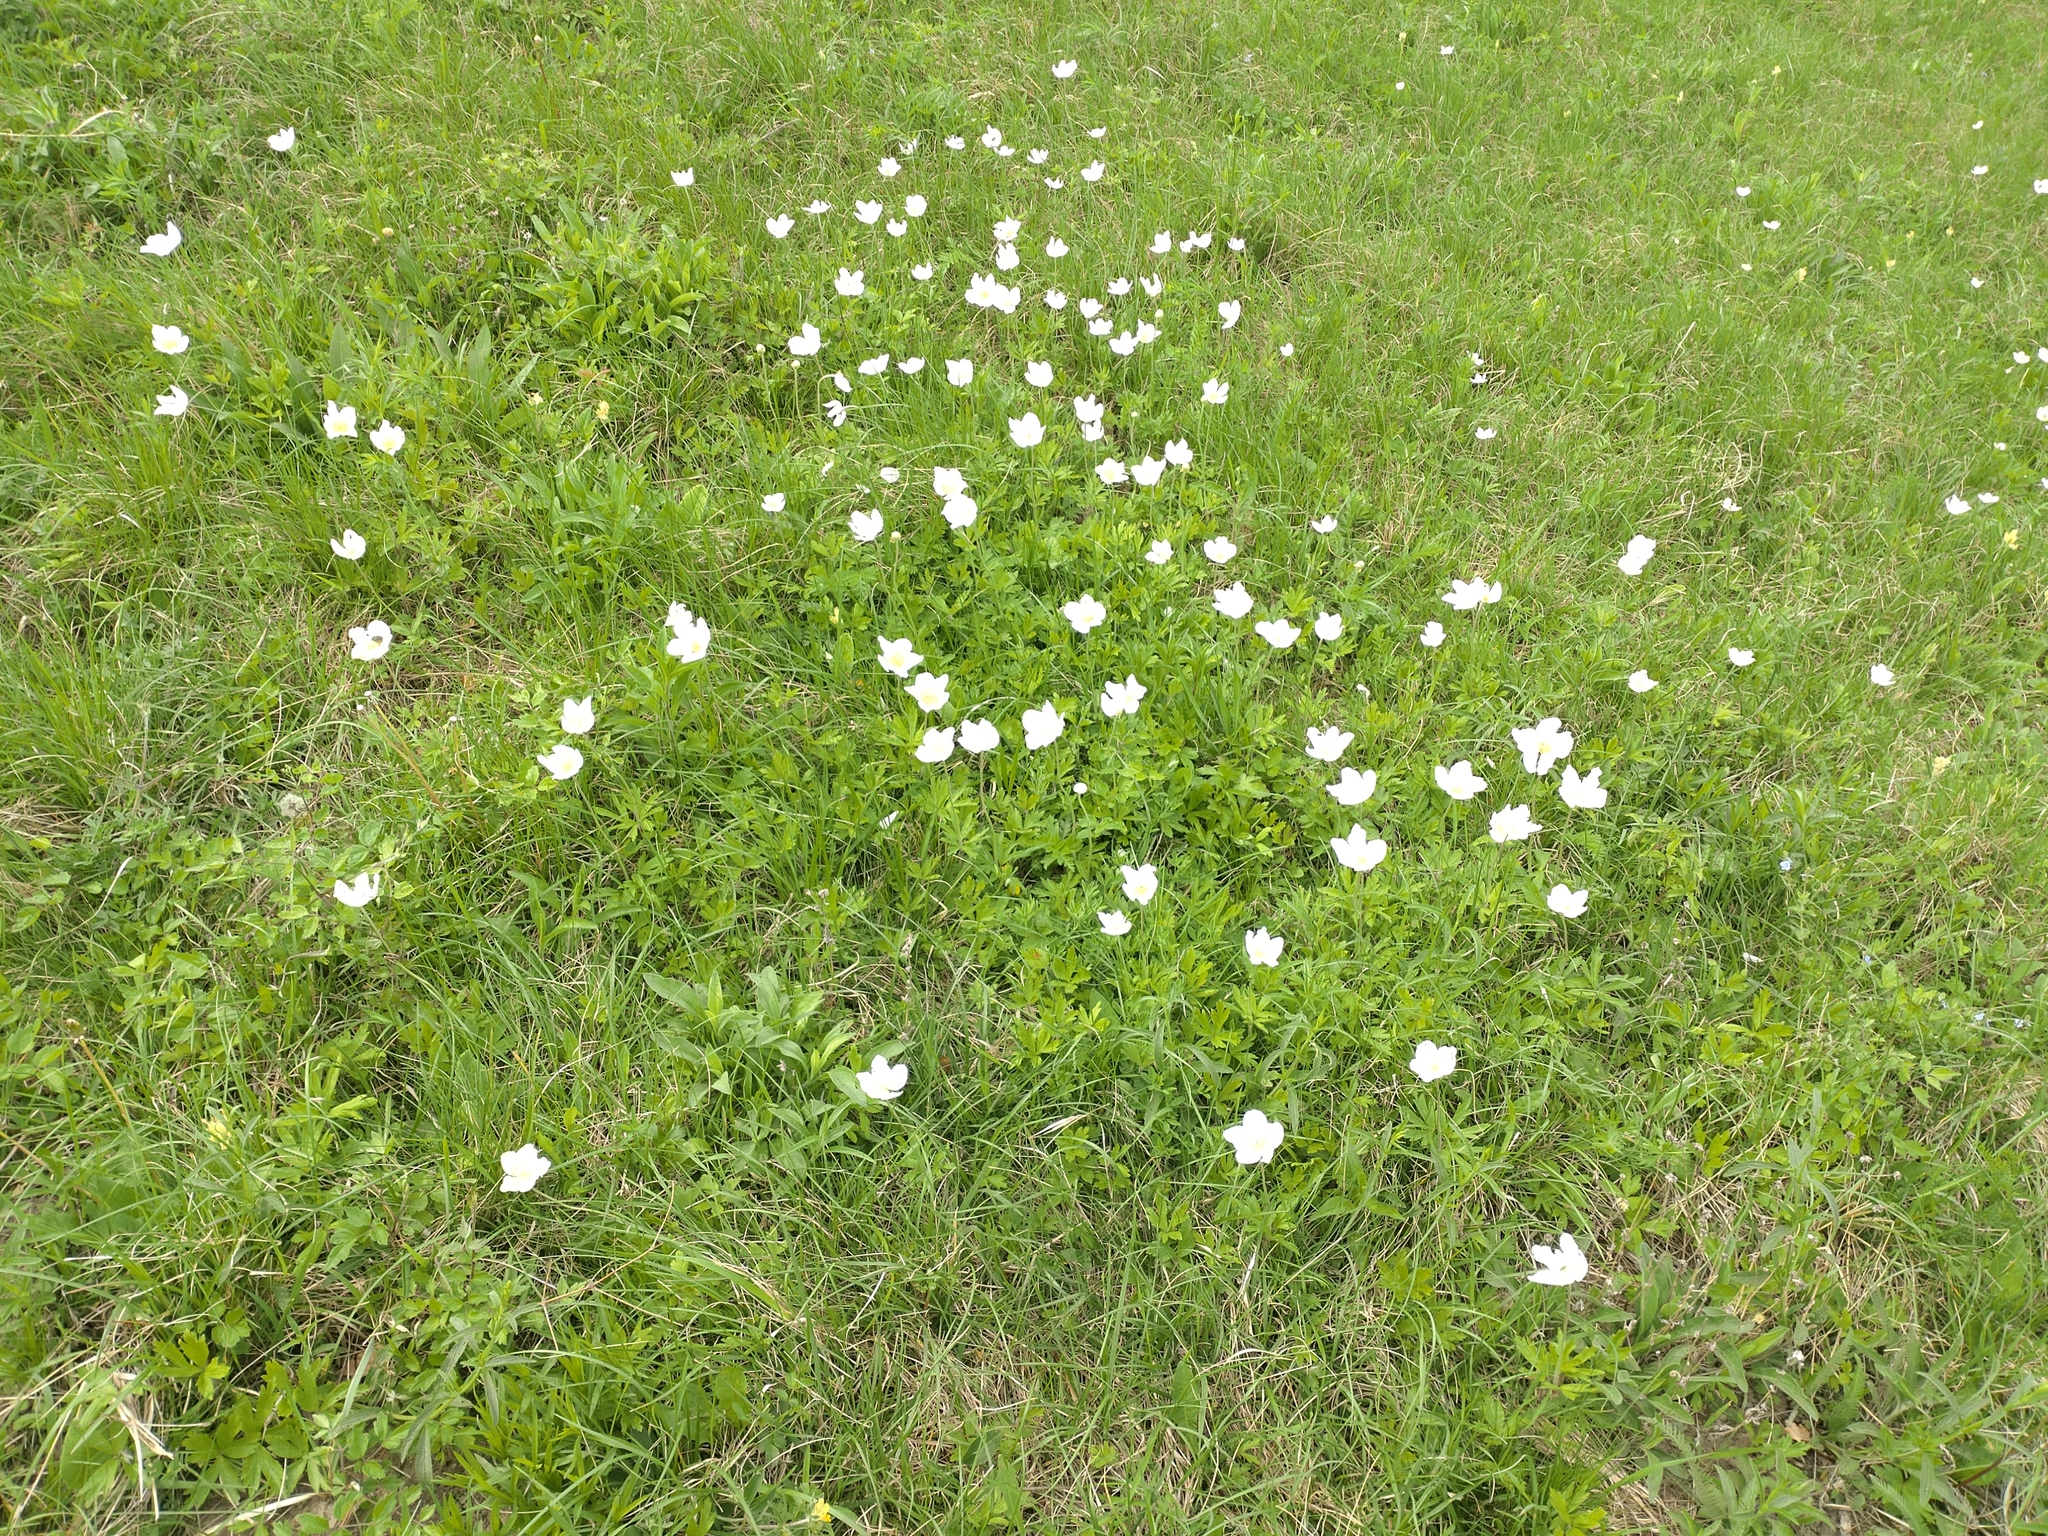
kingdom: Plantae
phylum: Tracheophyta
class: Magnoliopsida
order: Ranunculales
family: Ranunculaceae
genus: Anemone
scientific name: Anemone sylvestris
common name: Snowdrop anemone
